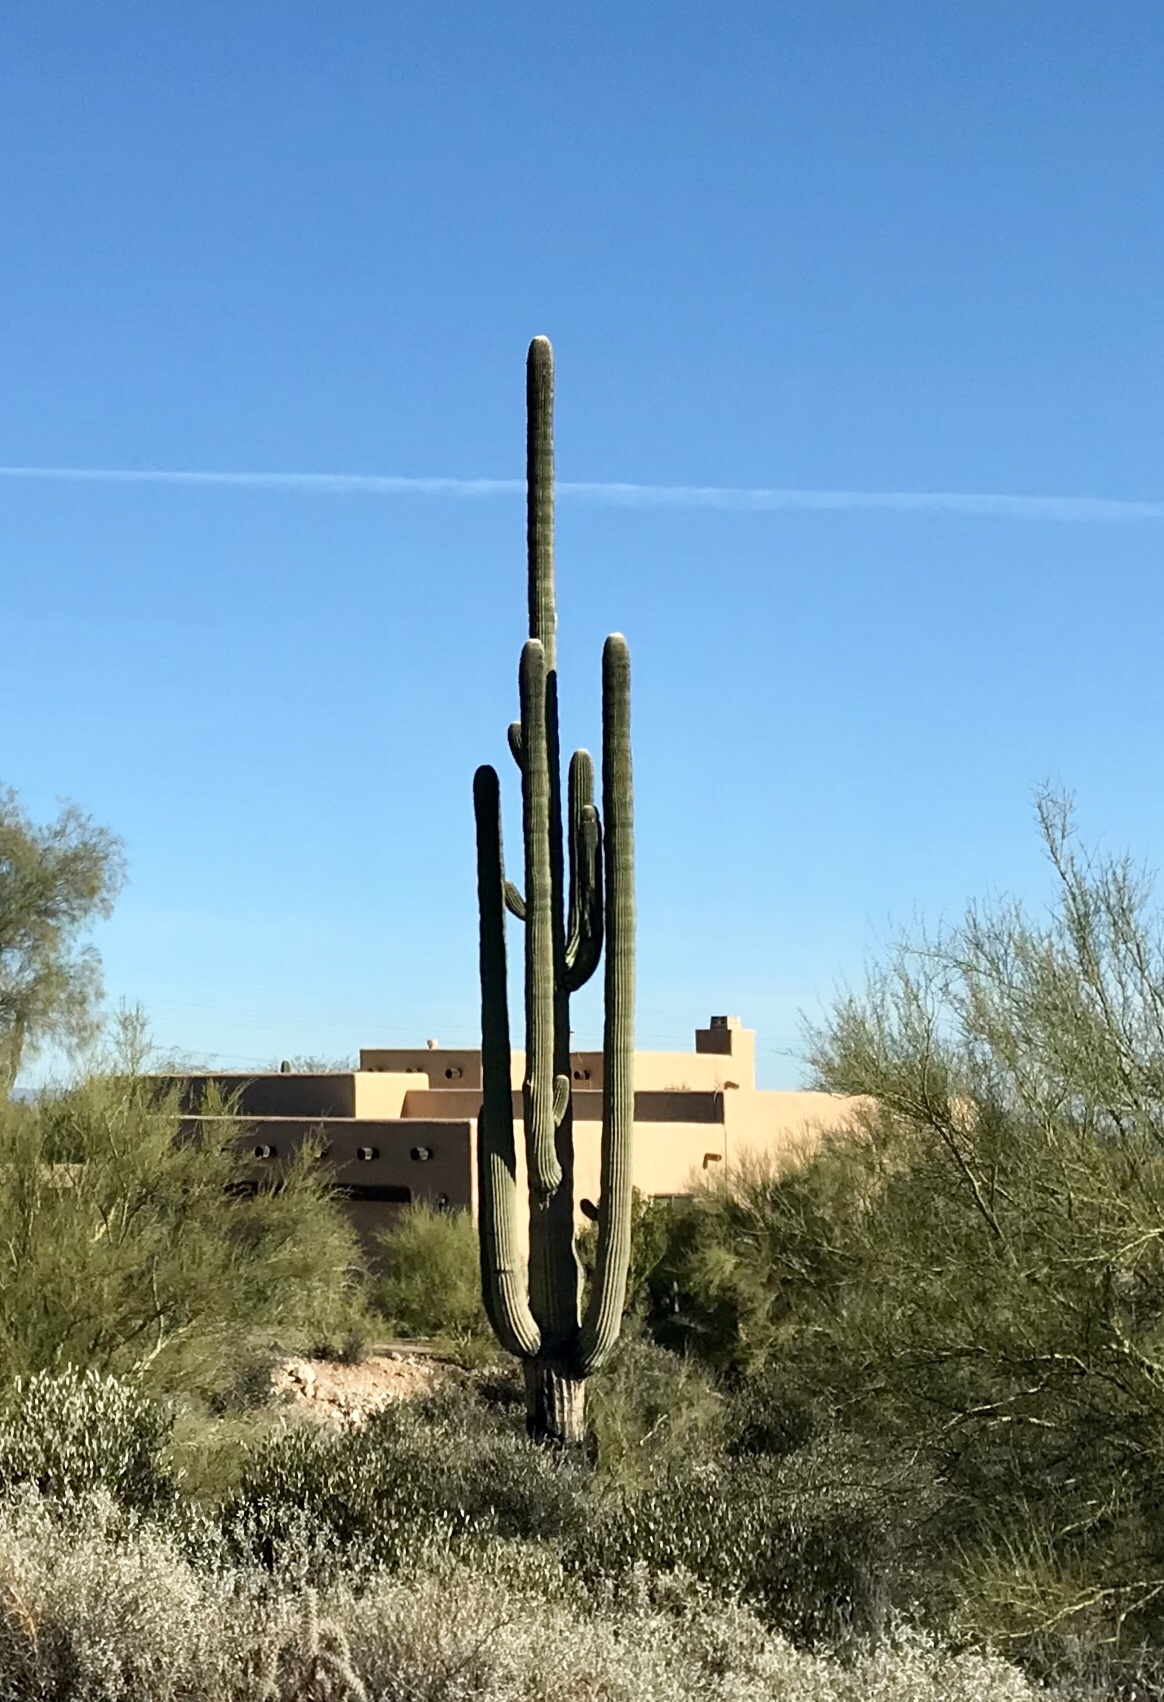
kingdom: Plantae
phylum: Tracheophyta
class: Magnoliopsida
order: Caryophyllales
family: Cactaceae
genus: Carnegiea
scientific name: Carnegiea gigantea
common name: Saguaro
